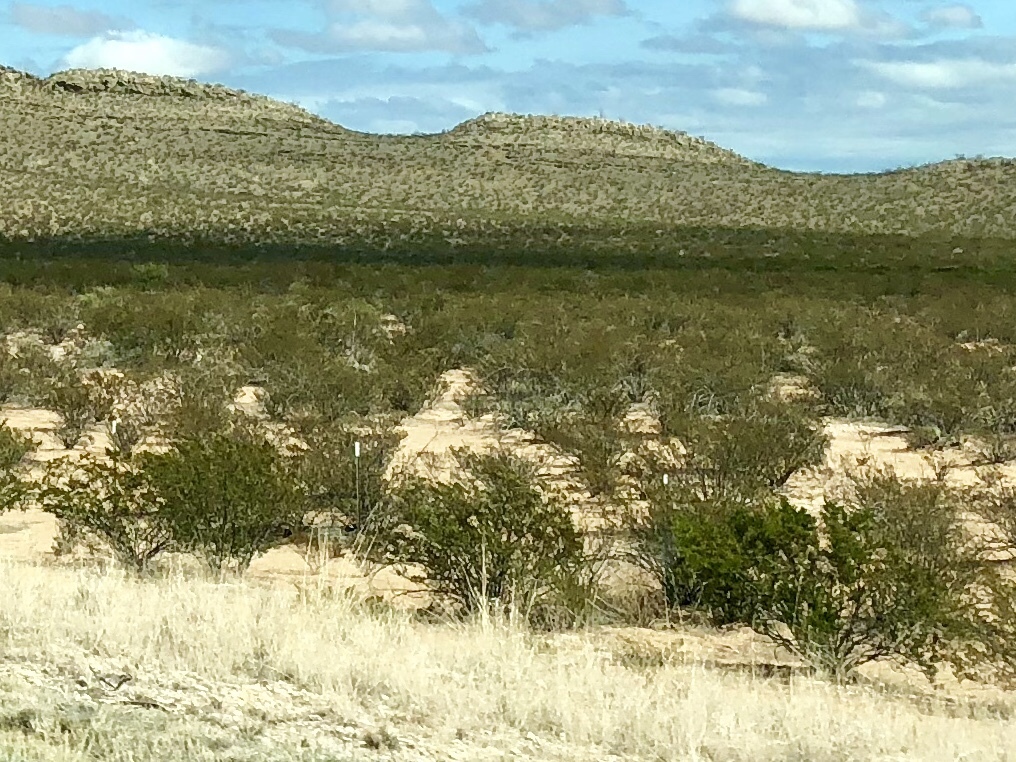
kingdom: Plantae
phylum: Tracheophyta
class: Magnoliopsida
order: Zygophyllales
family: Zygophyllaceae
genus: Larrea
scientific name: Larrea tridentata
